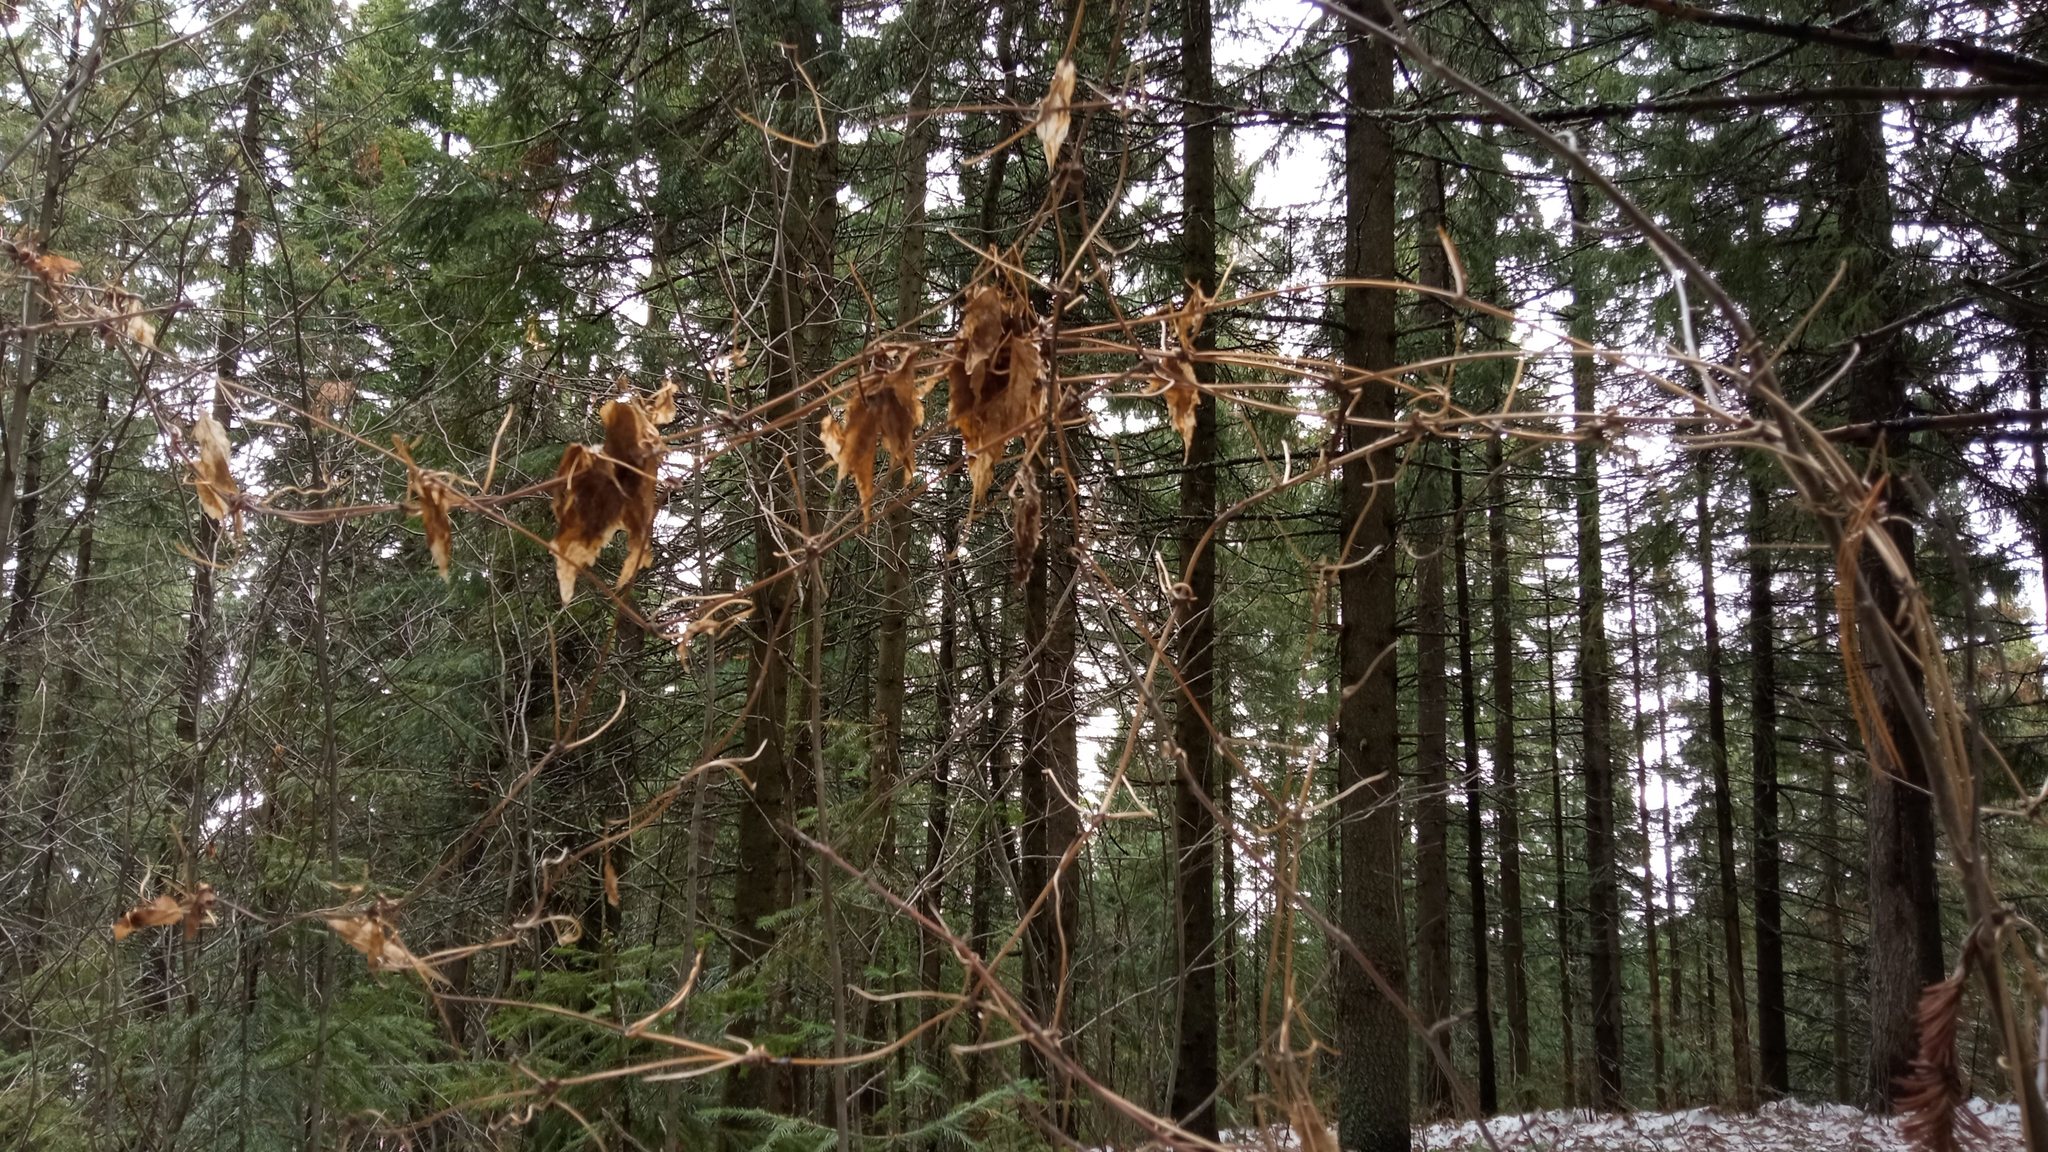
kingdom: Plantae
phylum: Tracheophyta
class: Magnoliopsida
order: Ranunculales
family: Ranunculaceae
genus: Clematis
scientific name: Clematis sibirica
